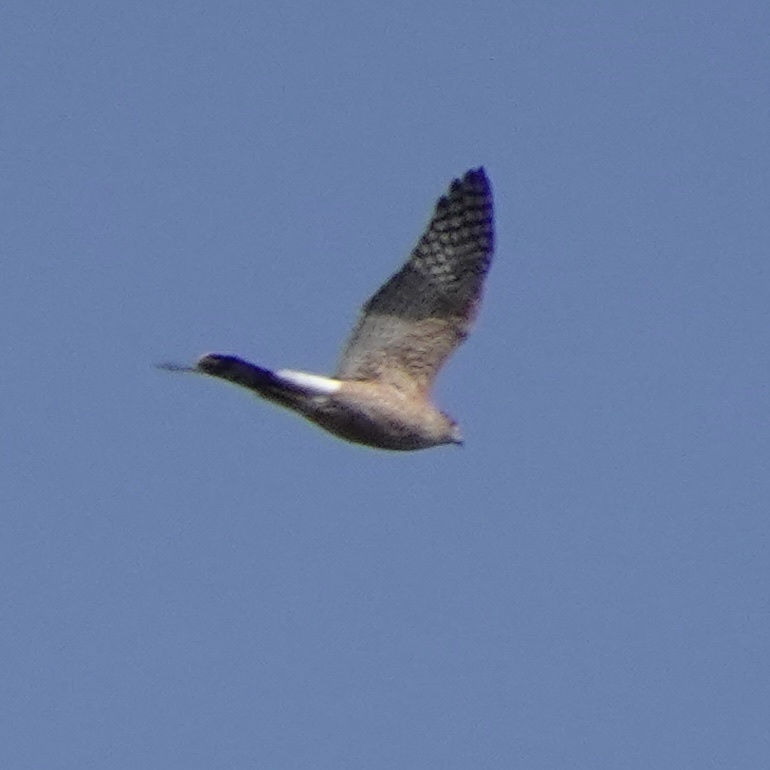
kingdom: Animalia
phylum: Chordata
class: Aves
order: Accipitriformes
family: Accipitridae
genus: Accipiter
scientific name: Accipiter cooperii
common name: Cooper's hawk
